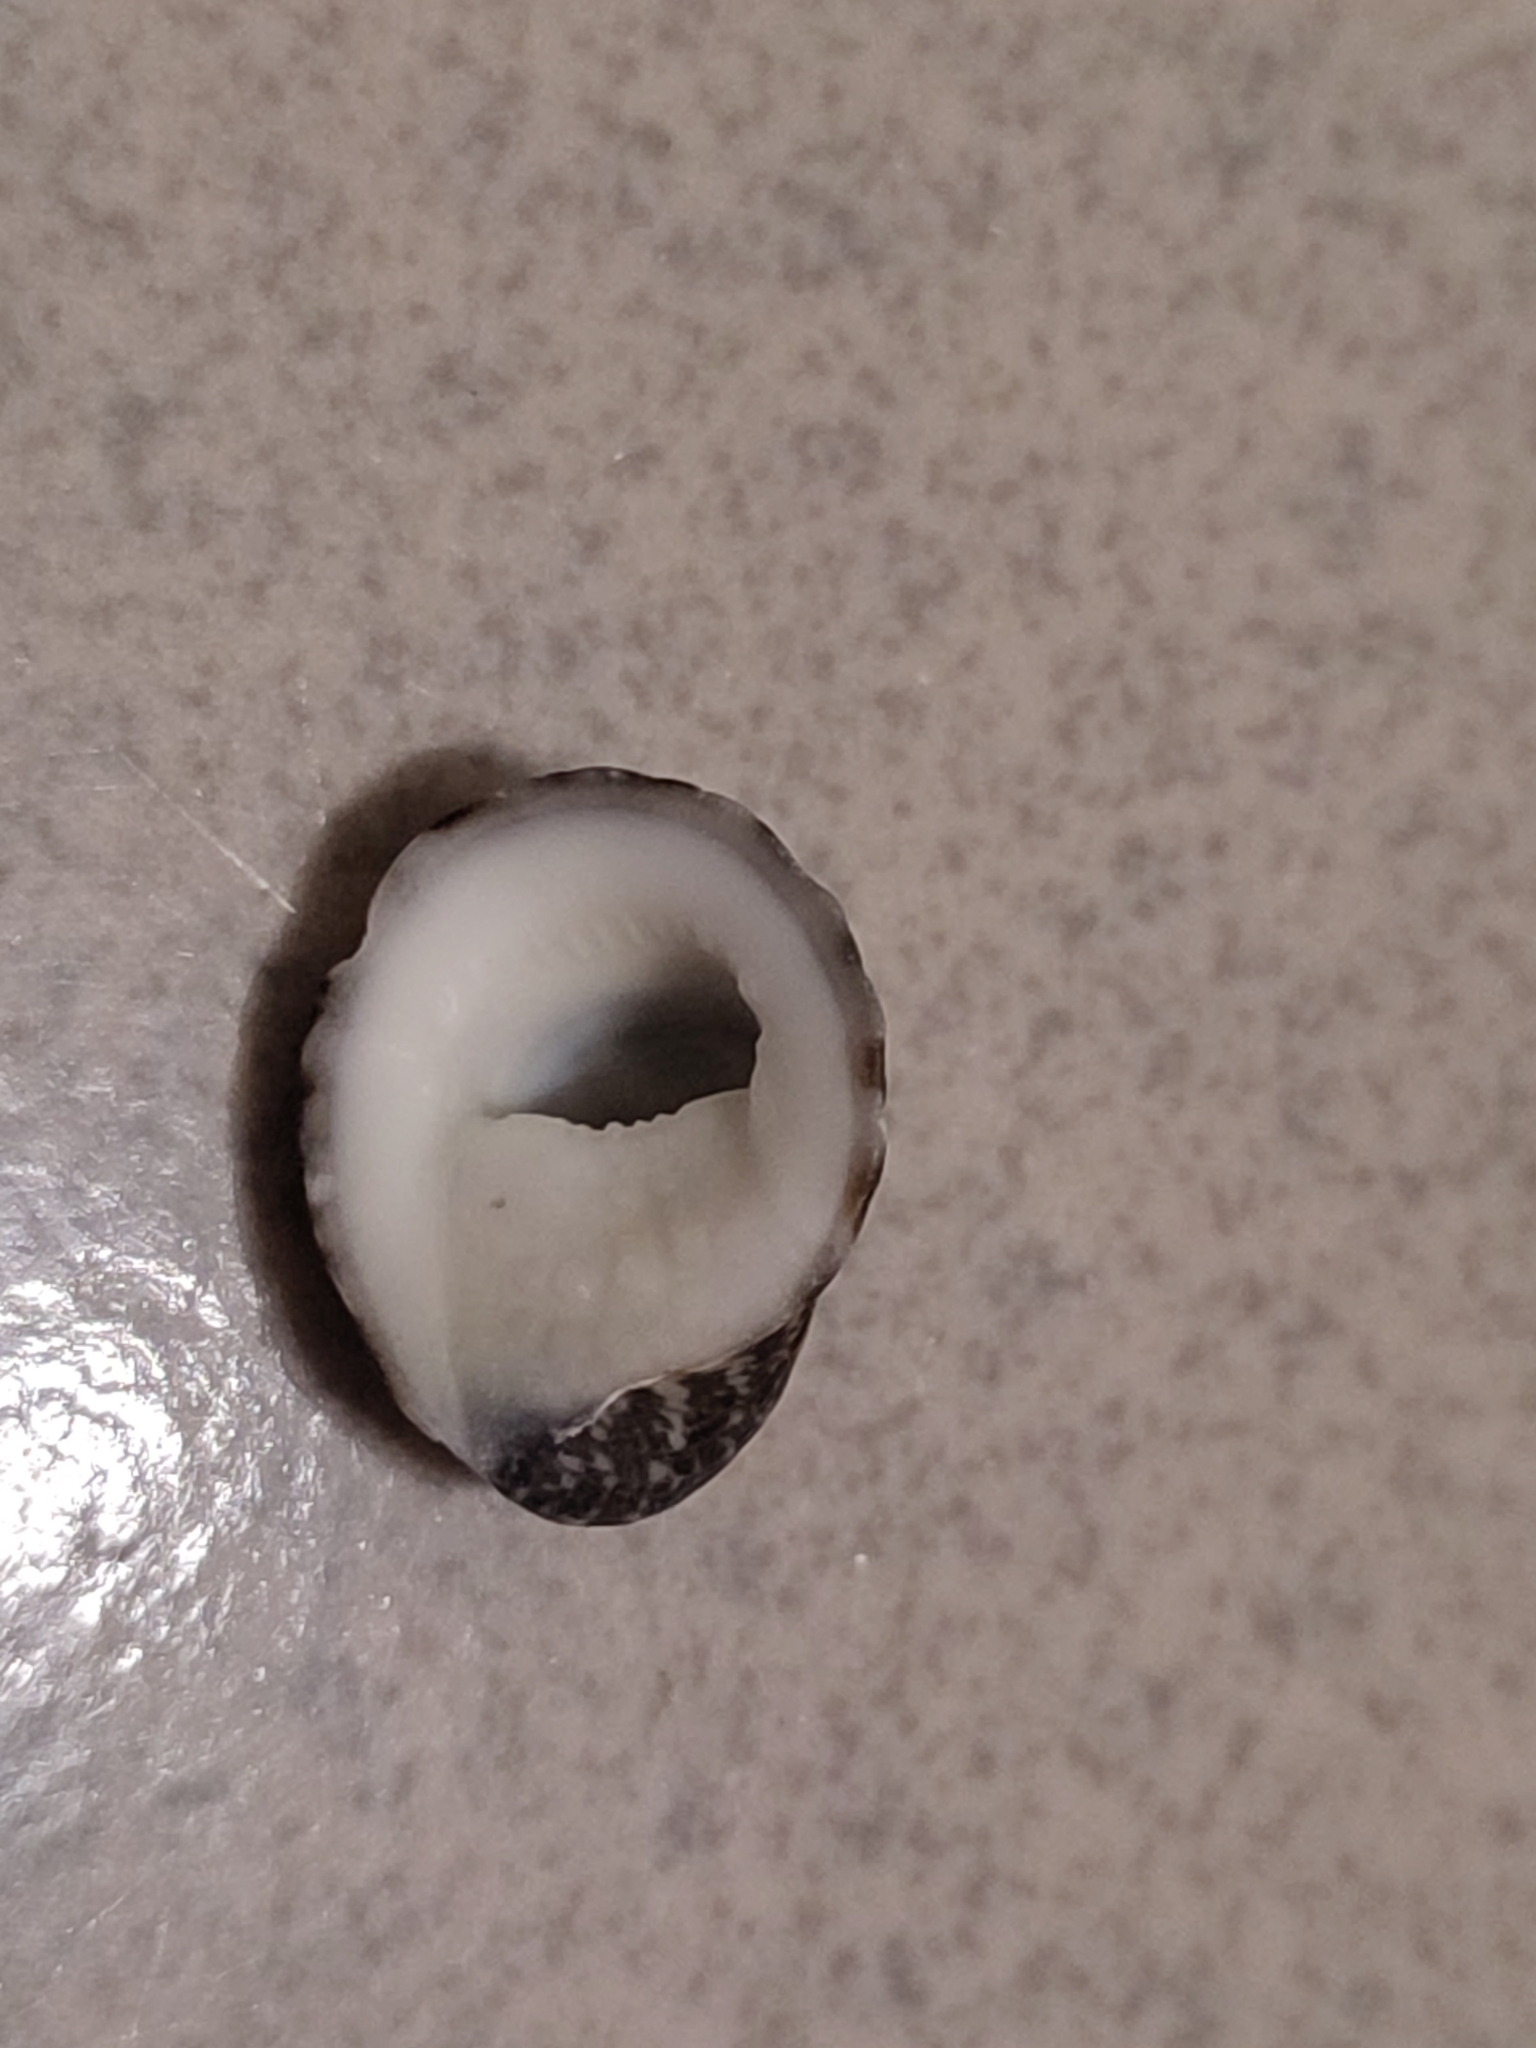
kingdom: Animalia
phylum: Mollusca
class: Gastropoda
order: Cycloneritida
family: Neritidae
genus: Nerita
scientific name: Nerita albicilla
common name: Blotched nerite
